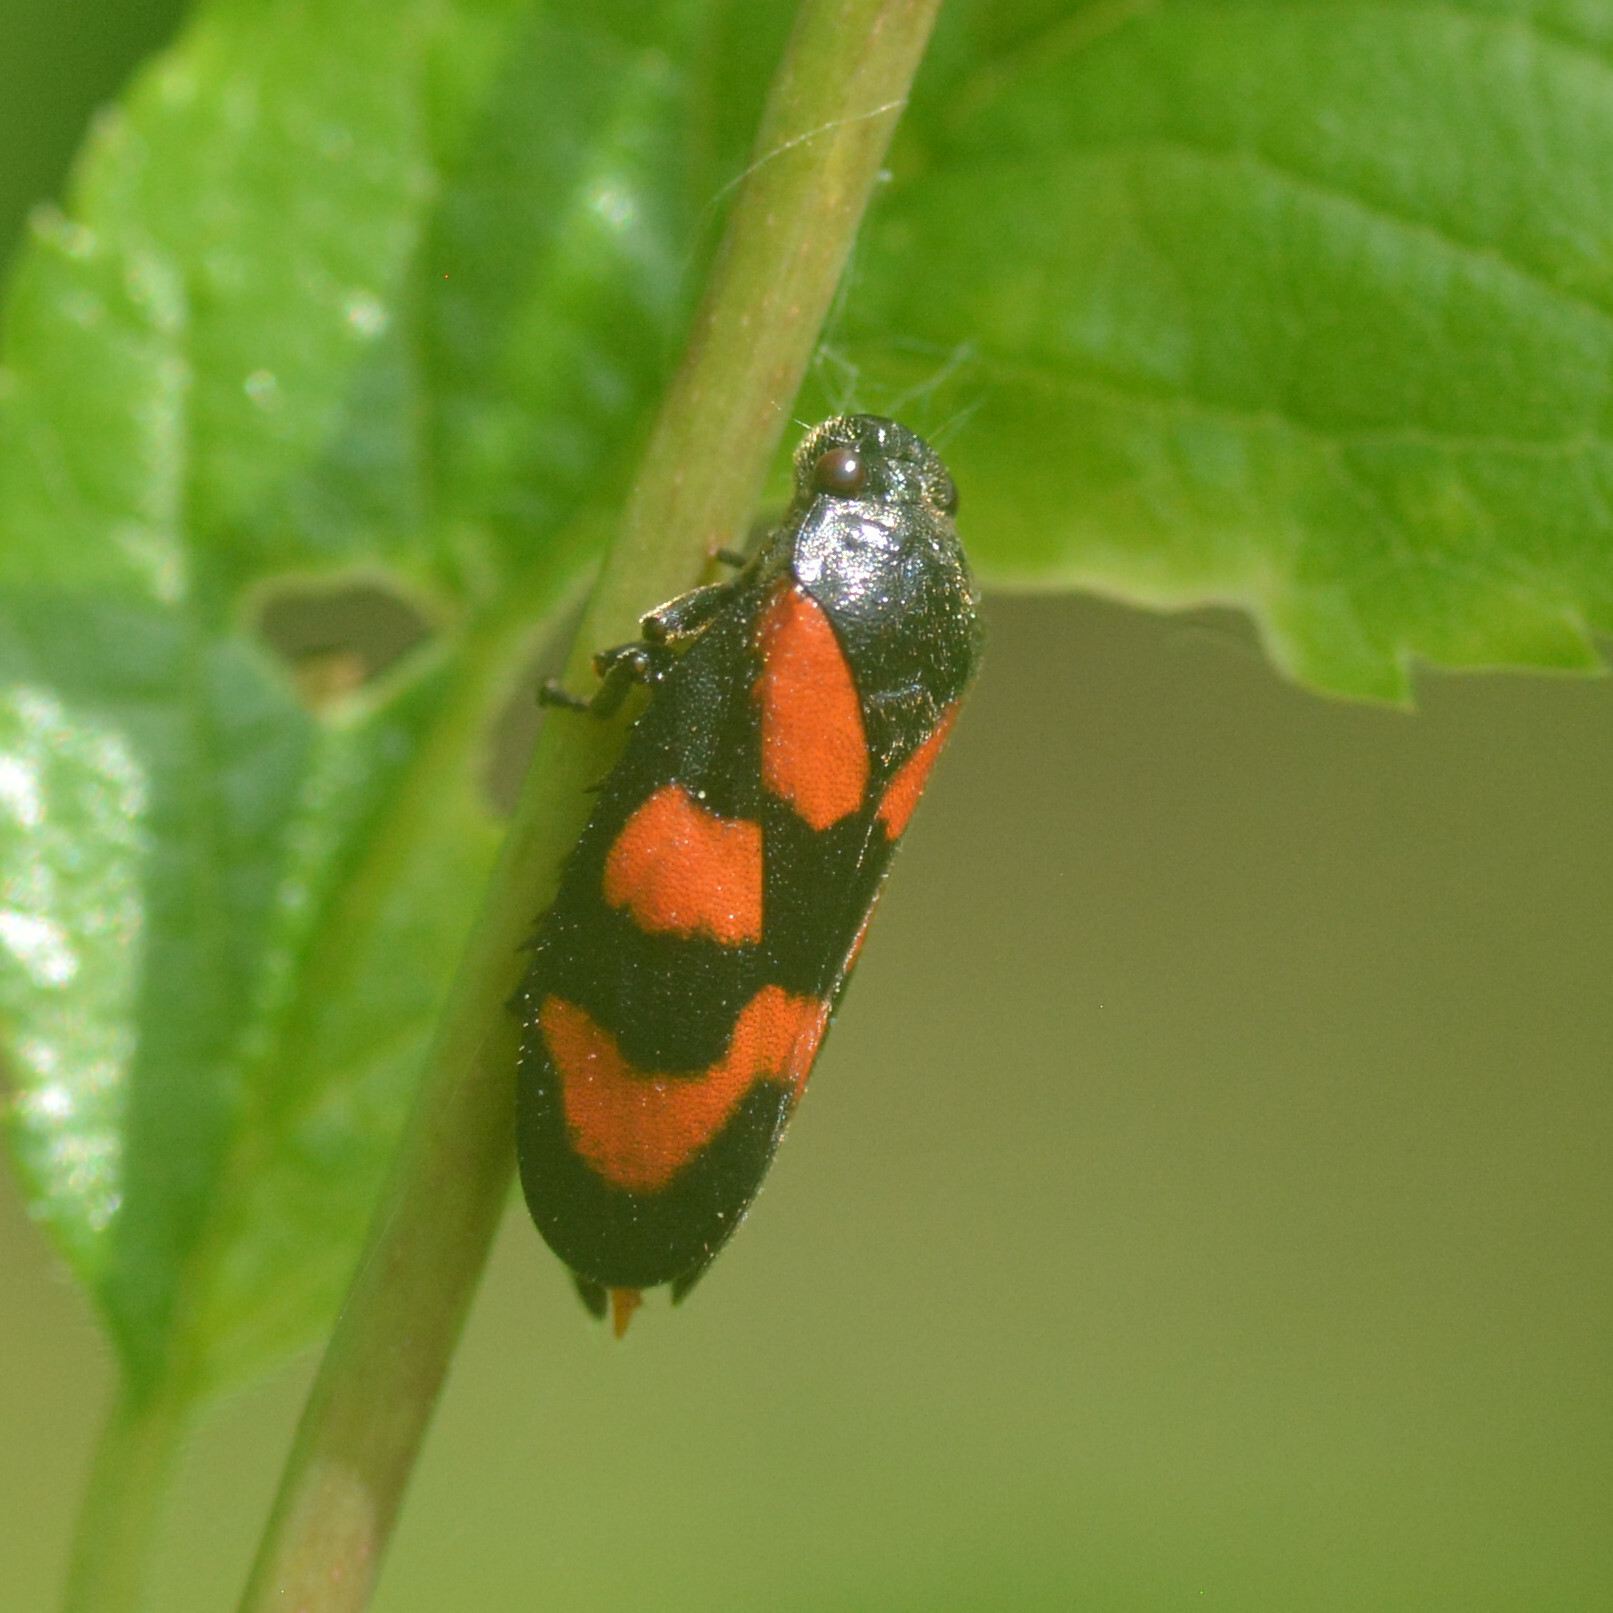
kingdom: Animalia
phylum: Arthropoda
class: Insecta
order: Hemiptera
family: Cercopidae
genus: Cercopis
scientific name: Cercopis vulnerata
